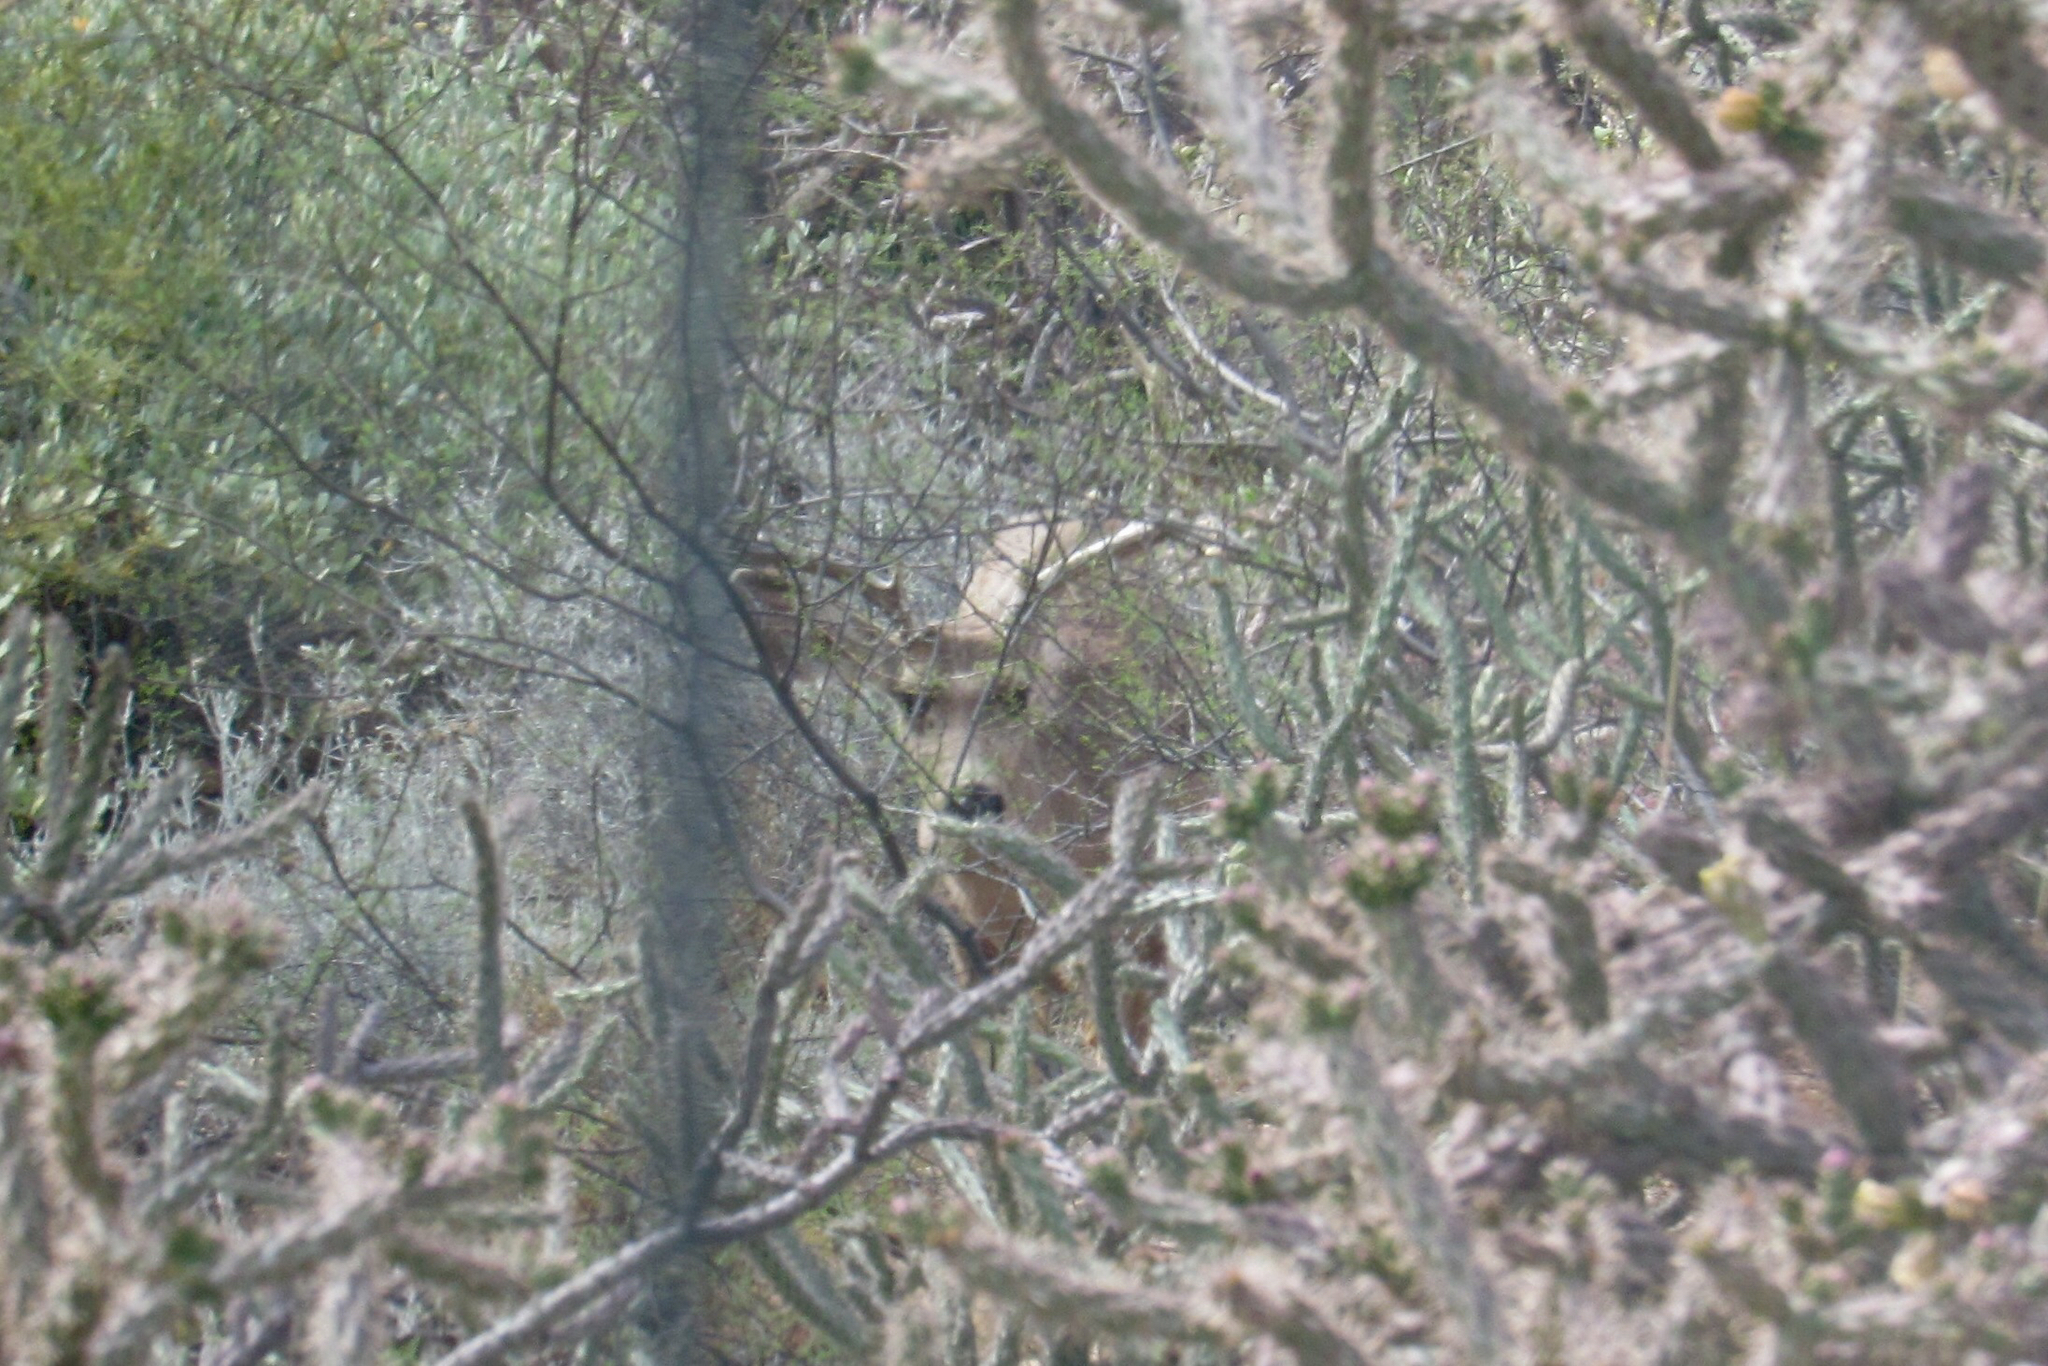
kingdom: Animalia
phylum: Chordata
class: Mammalia
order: Artiodactyla
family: Cervidae
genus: Odocoileus
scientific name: Odocoileus hemionus
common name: Mule deer
